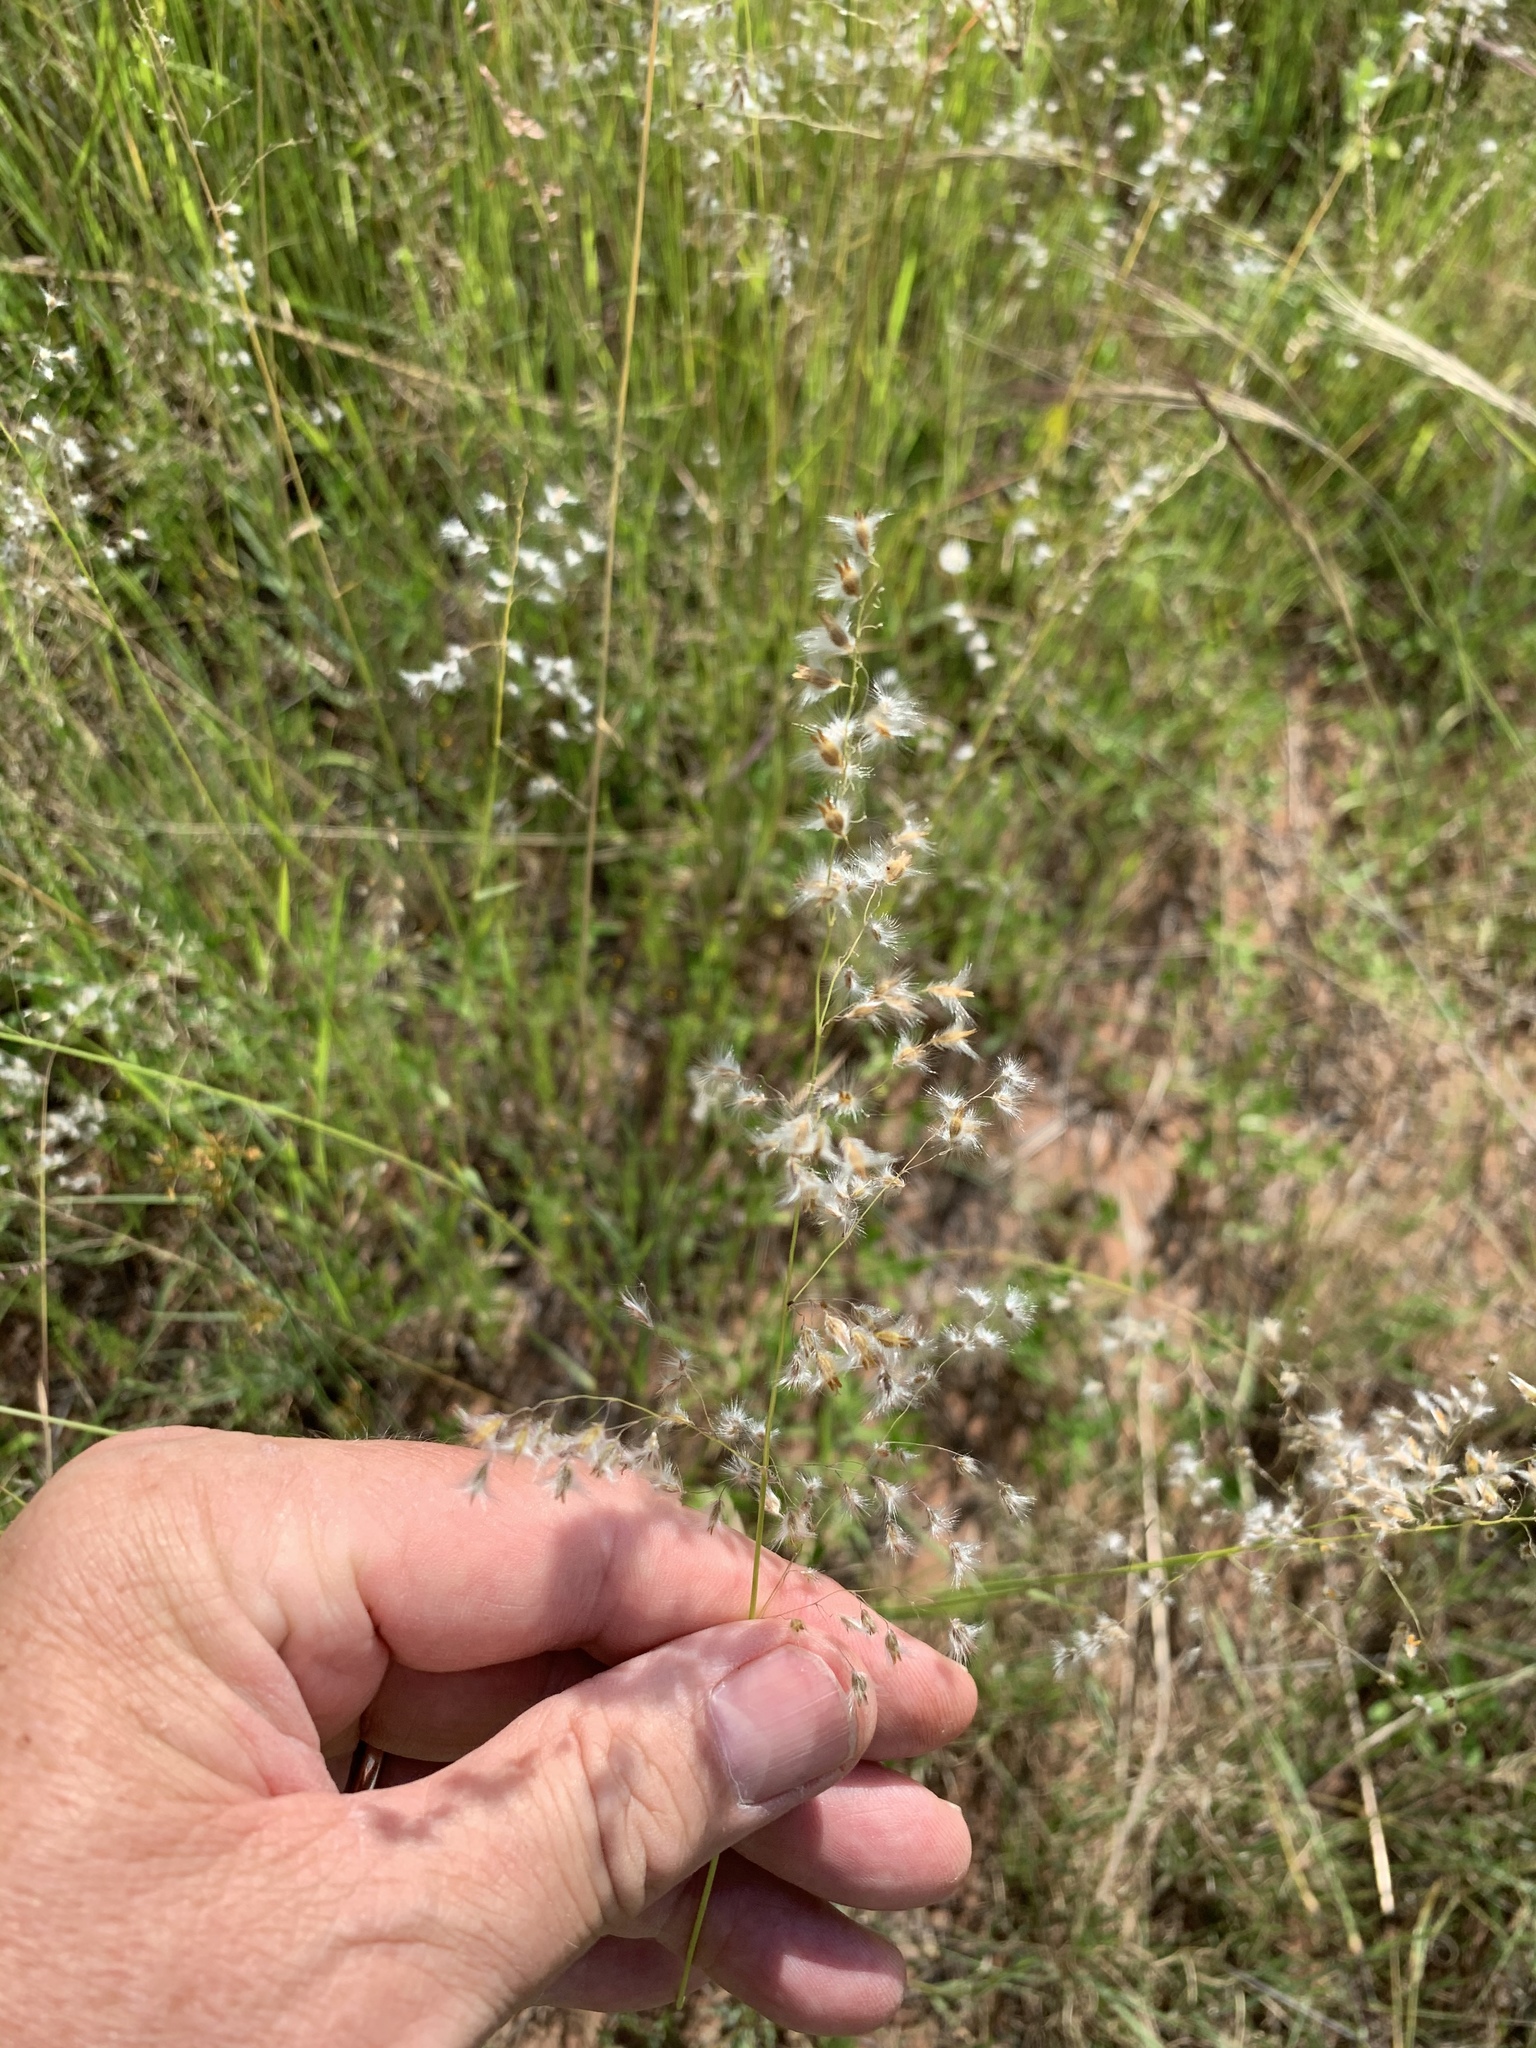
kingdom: Plantae
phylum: Tracheophyta
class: Liliopsida
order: Poales
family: Poaceae
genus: Melinis
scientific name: Melinis repens
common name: Rose natal grass
